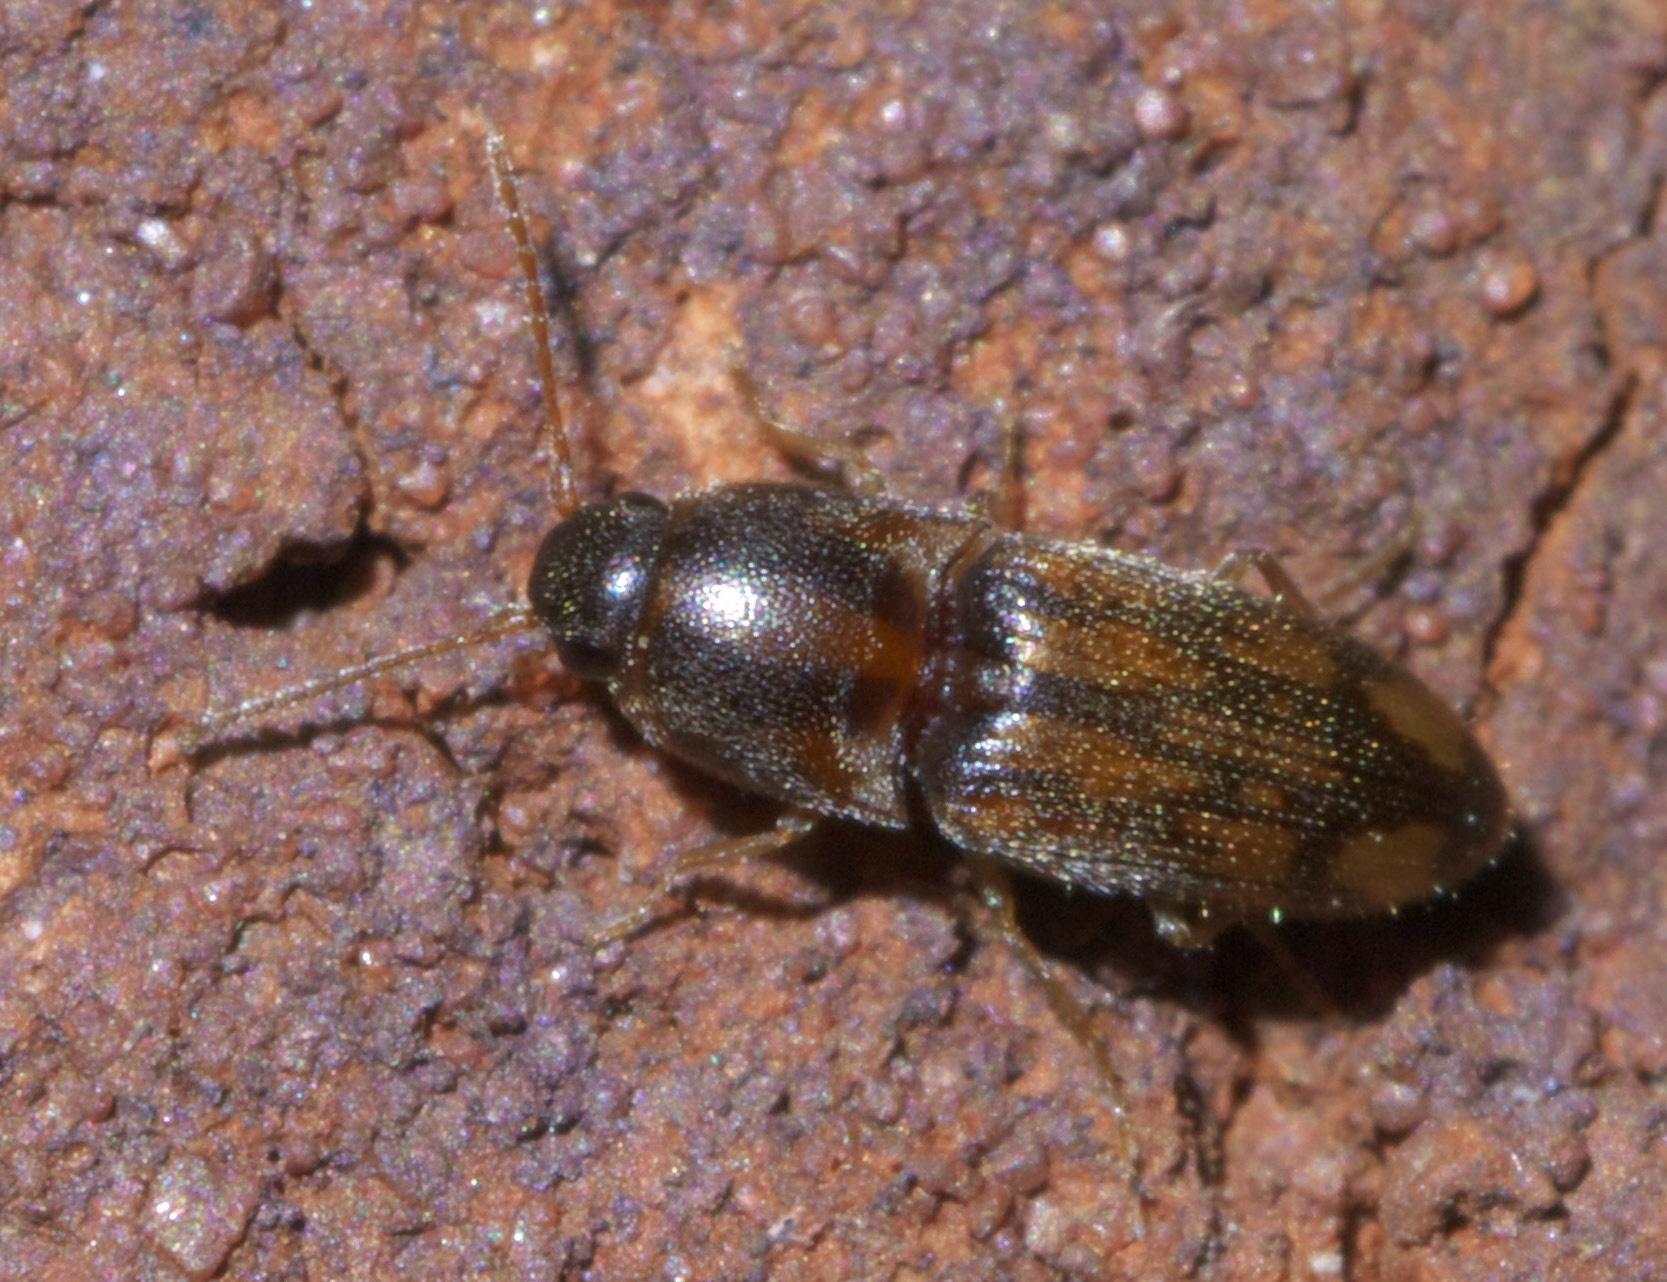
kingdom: Animalia
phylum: Arthropoda
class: Insecta
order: Coleoptera
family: Elateridae
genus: Monocrepidius
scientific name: Monocrepidius bellus
